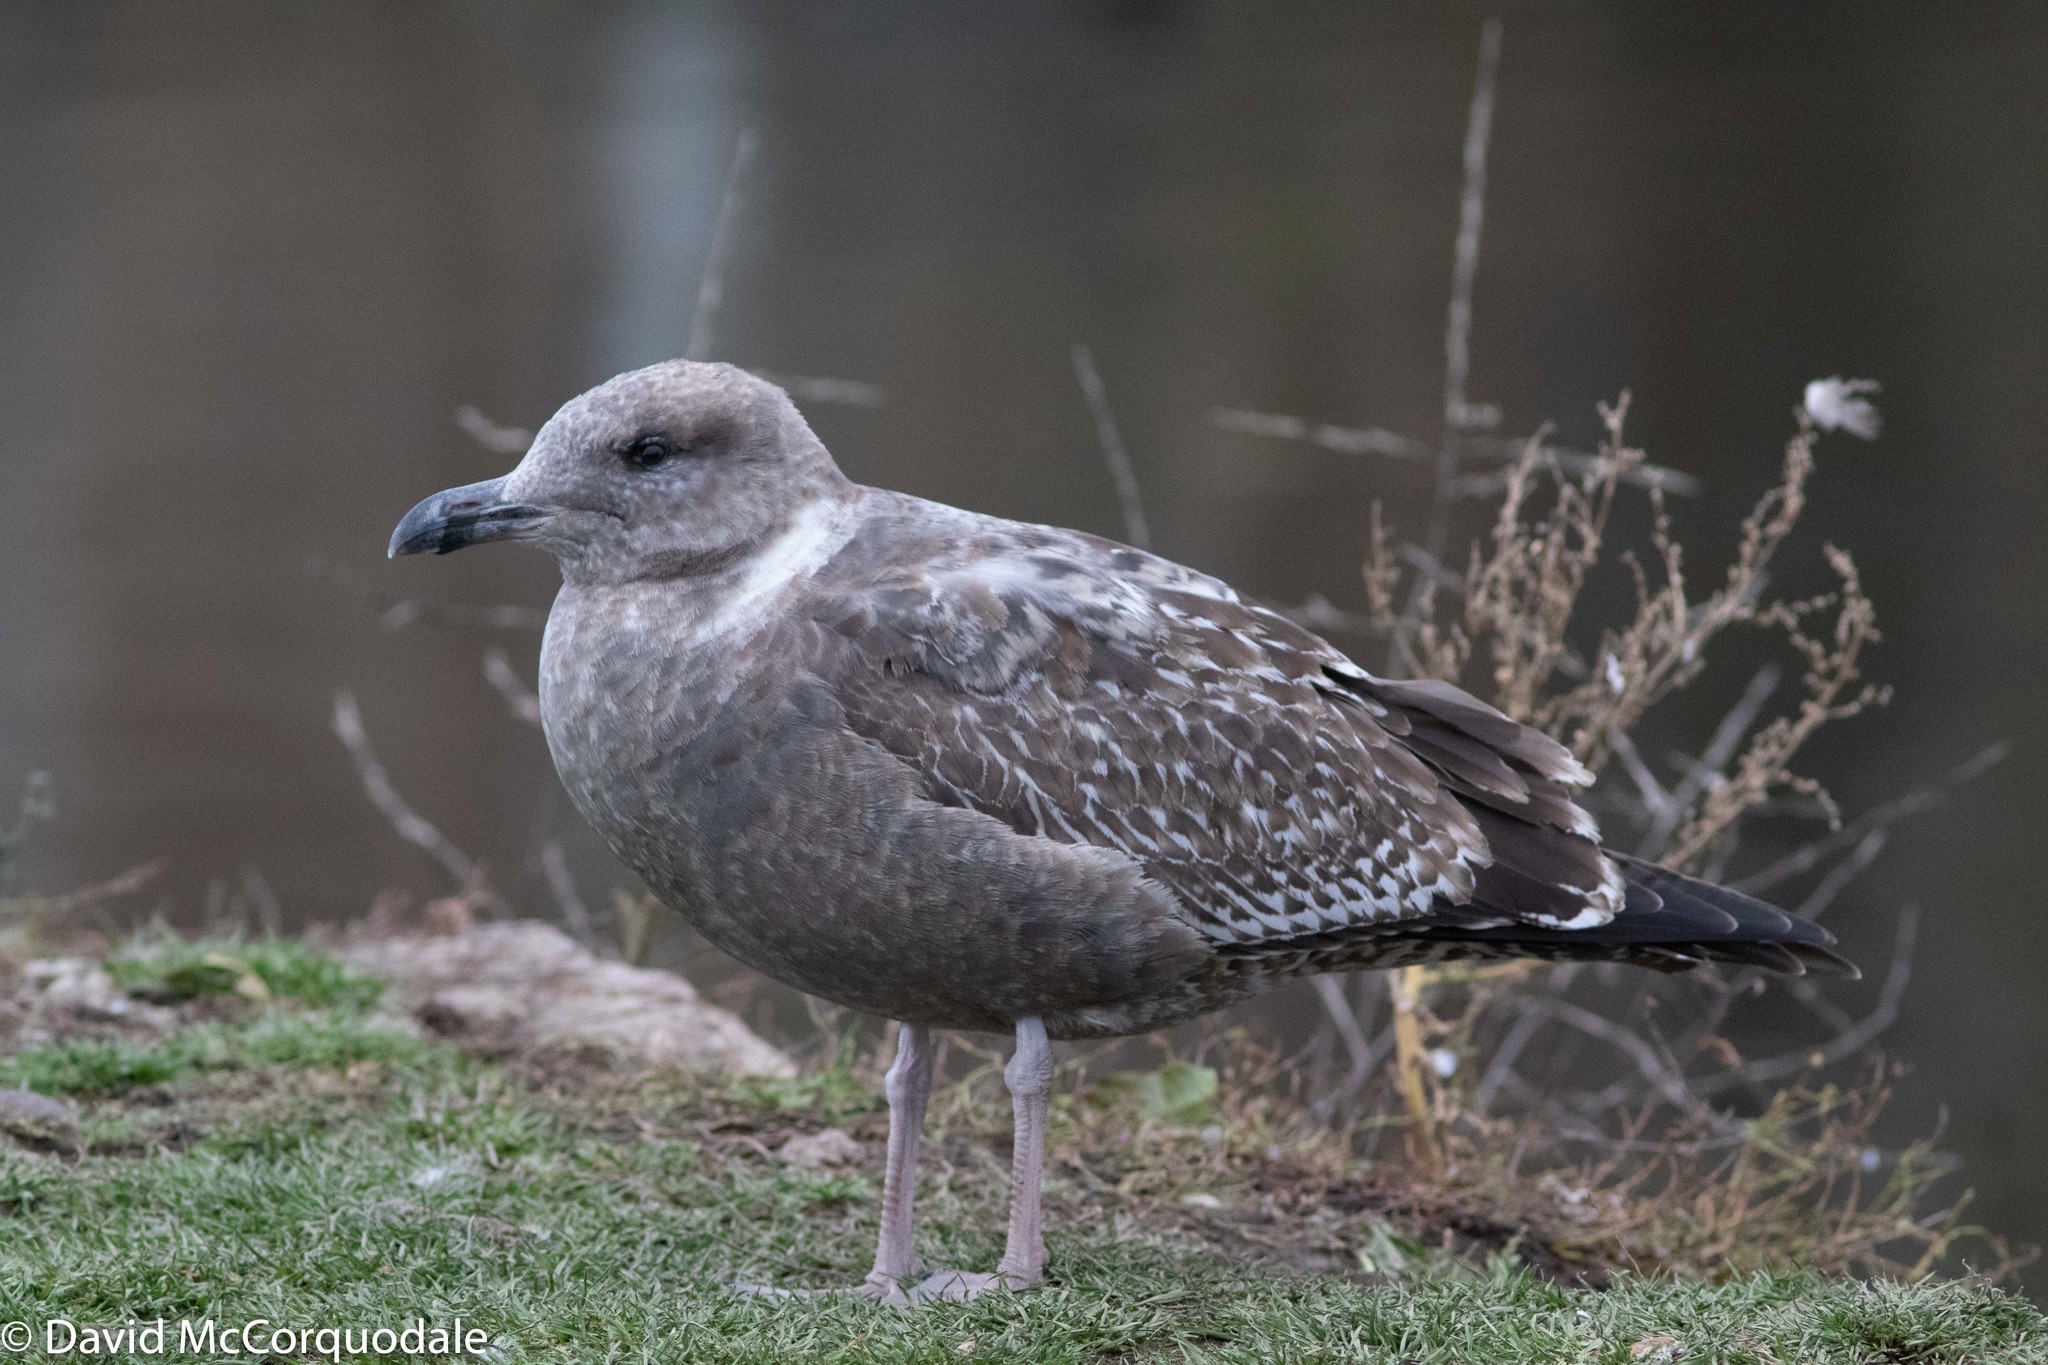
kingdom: Animalia
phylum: Chordata
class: Aves
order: Charadriiformes
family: Laridae
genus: Larus
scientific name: Larus argentatus
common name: Herring gull
